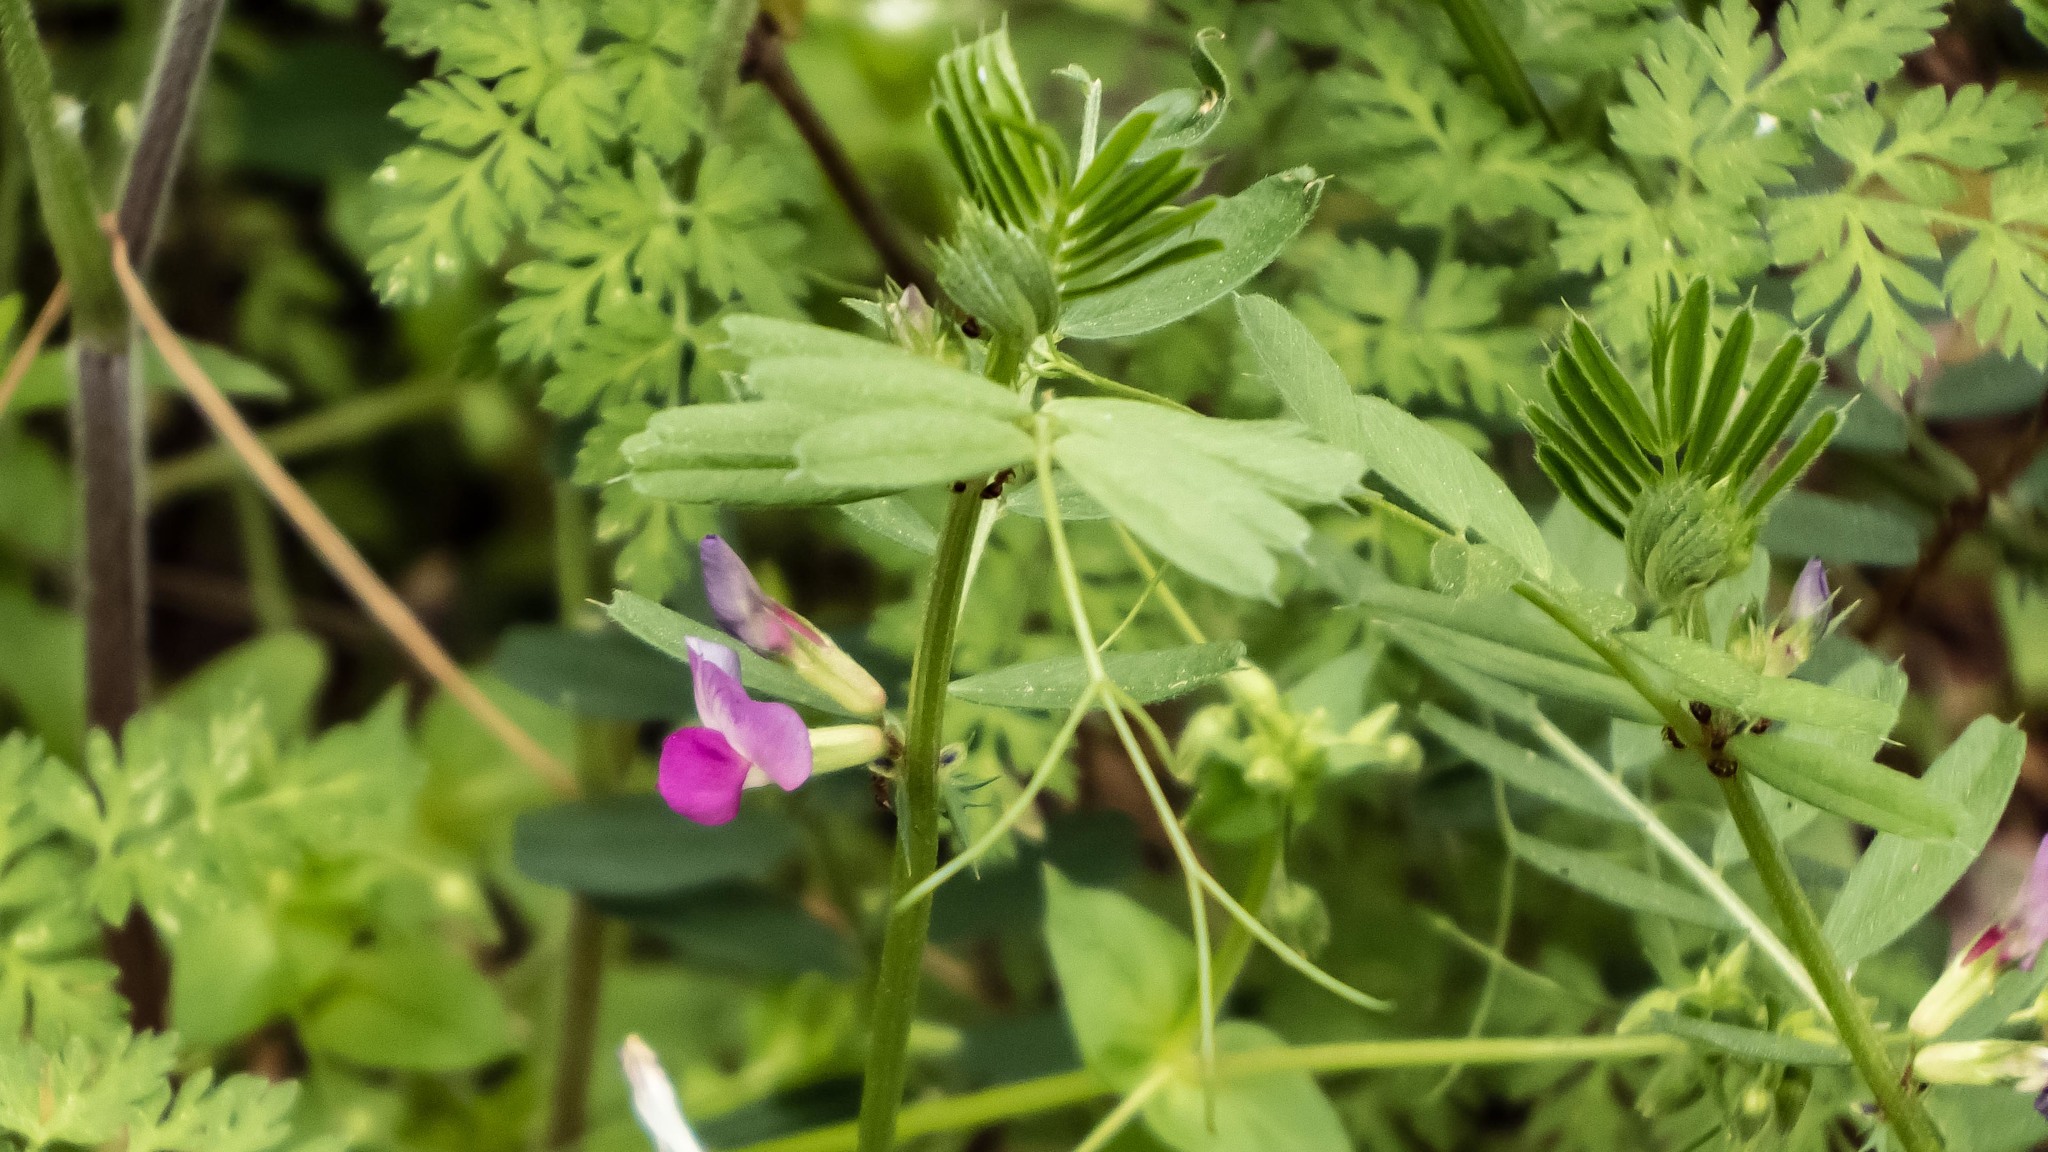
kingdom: Plantae
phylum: Tracheophyta
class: Magnoliopsida
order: Fabales
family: Fabaceae
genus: Vicia
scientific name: Vicia sativa
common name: Garden vetch
